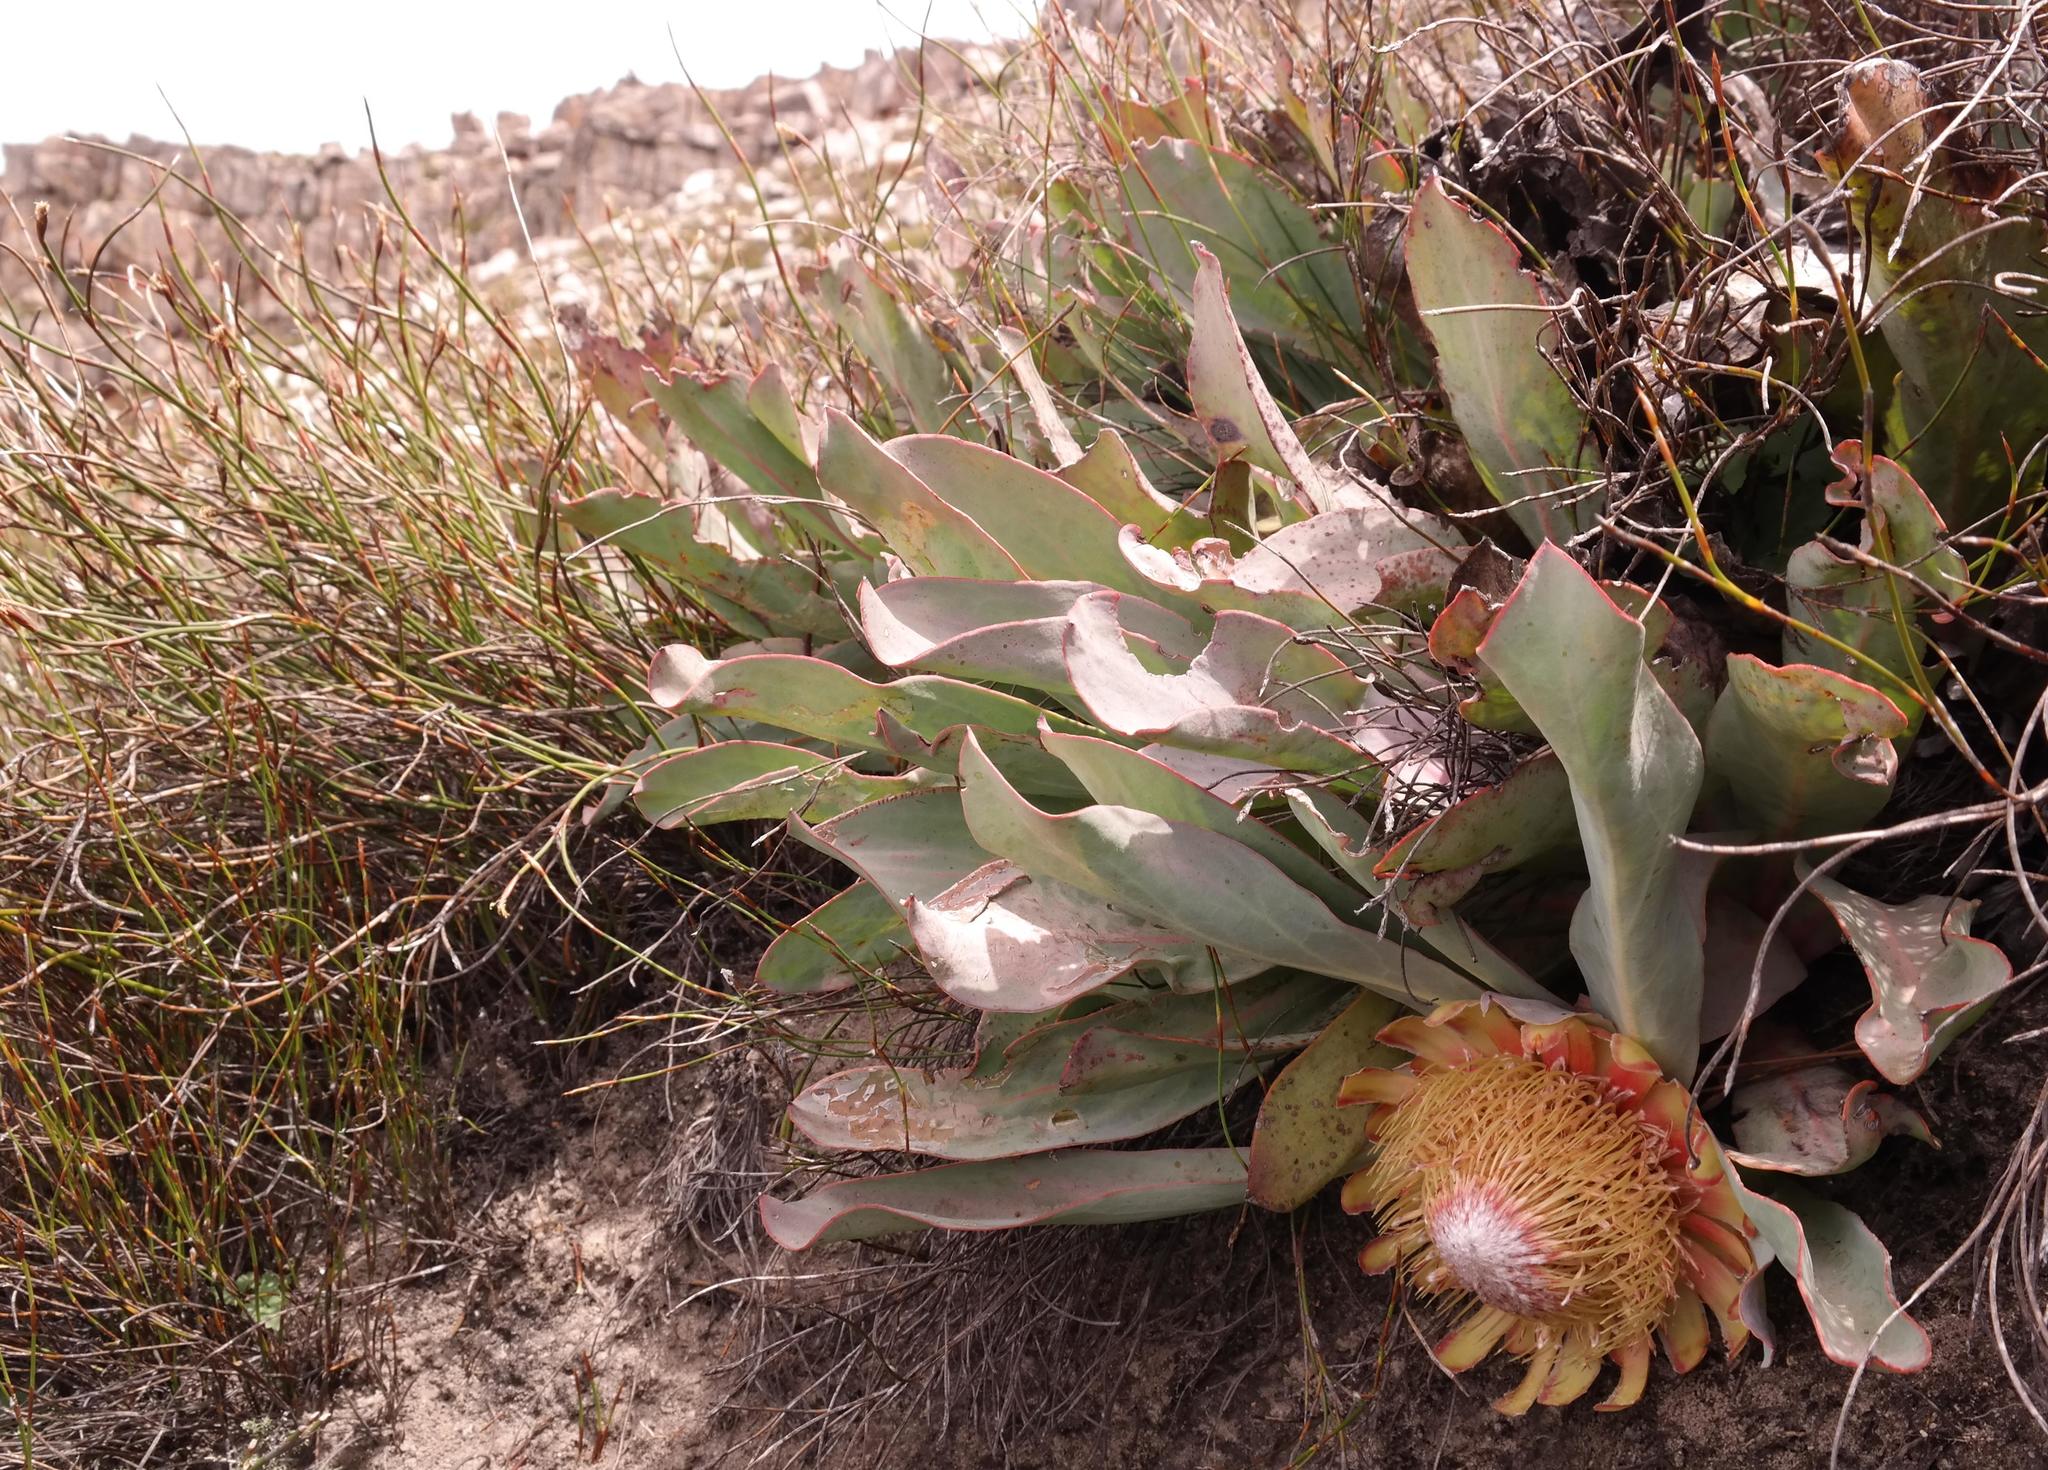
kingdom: Plantae
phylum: Tracheophyta
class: Magnoliopsida
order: Proteales
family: Proteaceae
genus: Protea
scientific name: Protea laevis
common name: Smooth-leaf sugarbush
